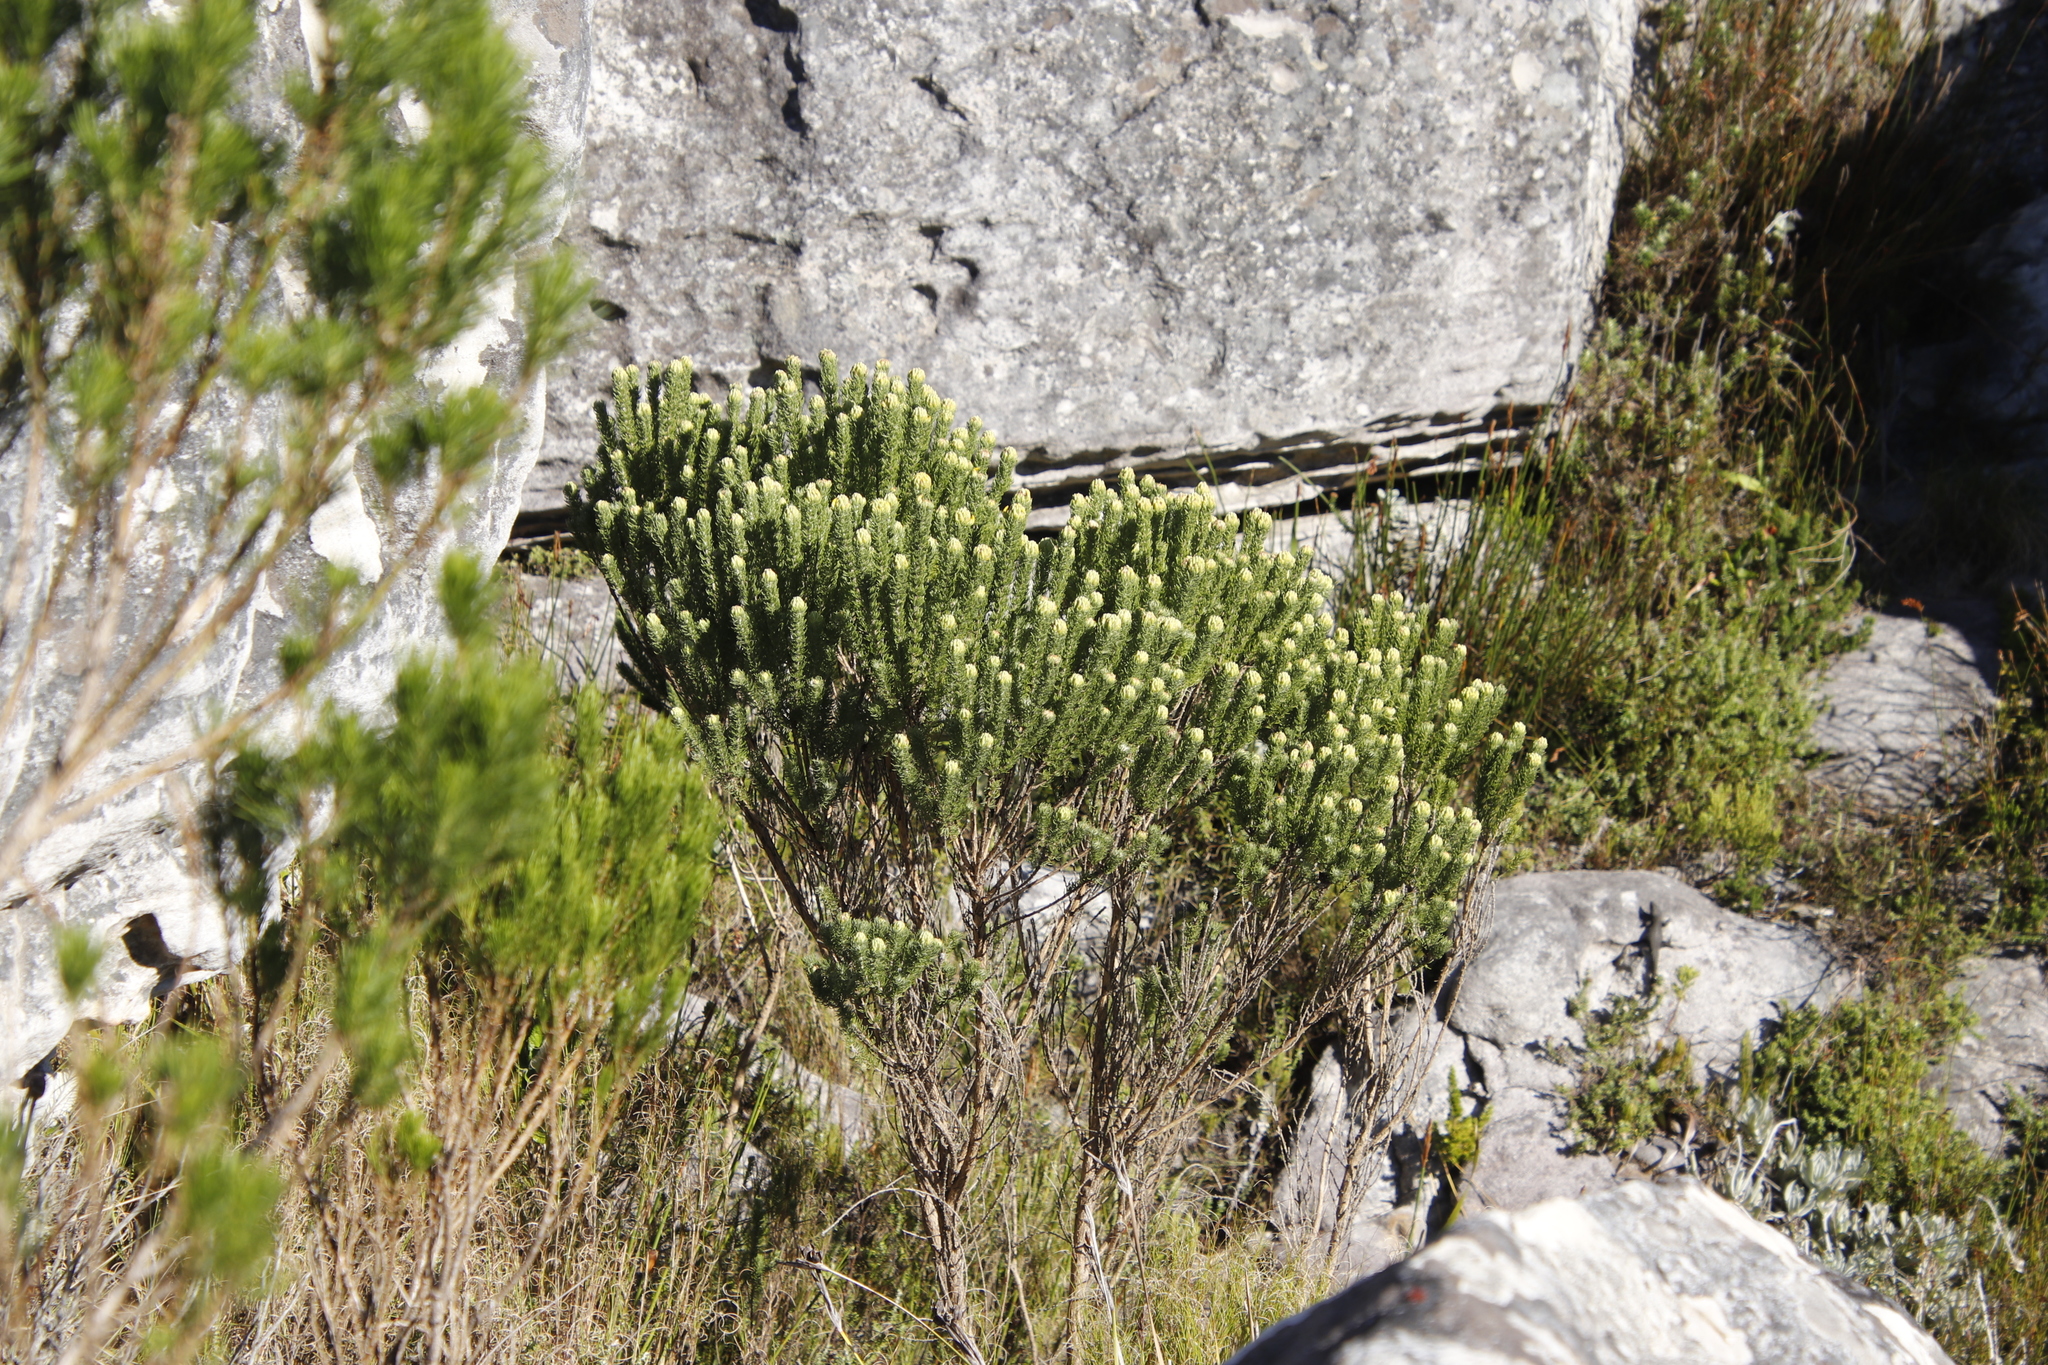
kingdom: Plantae
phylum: Tracheophyta
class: Magnoliopsida
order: Fabales
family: Fabaceae
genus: Aspalathus
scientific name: Aspalathus capitata
